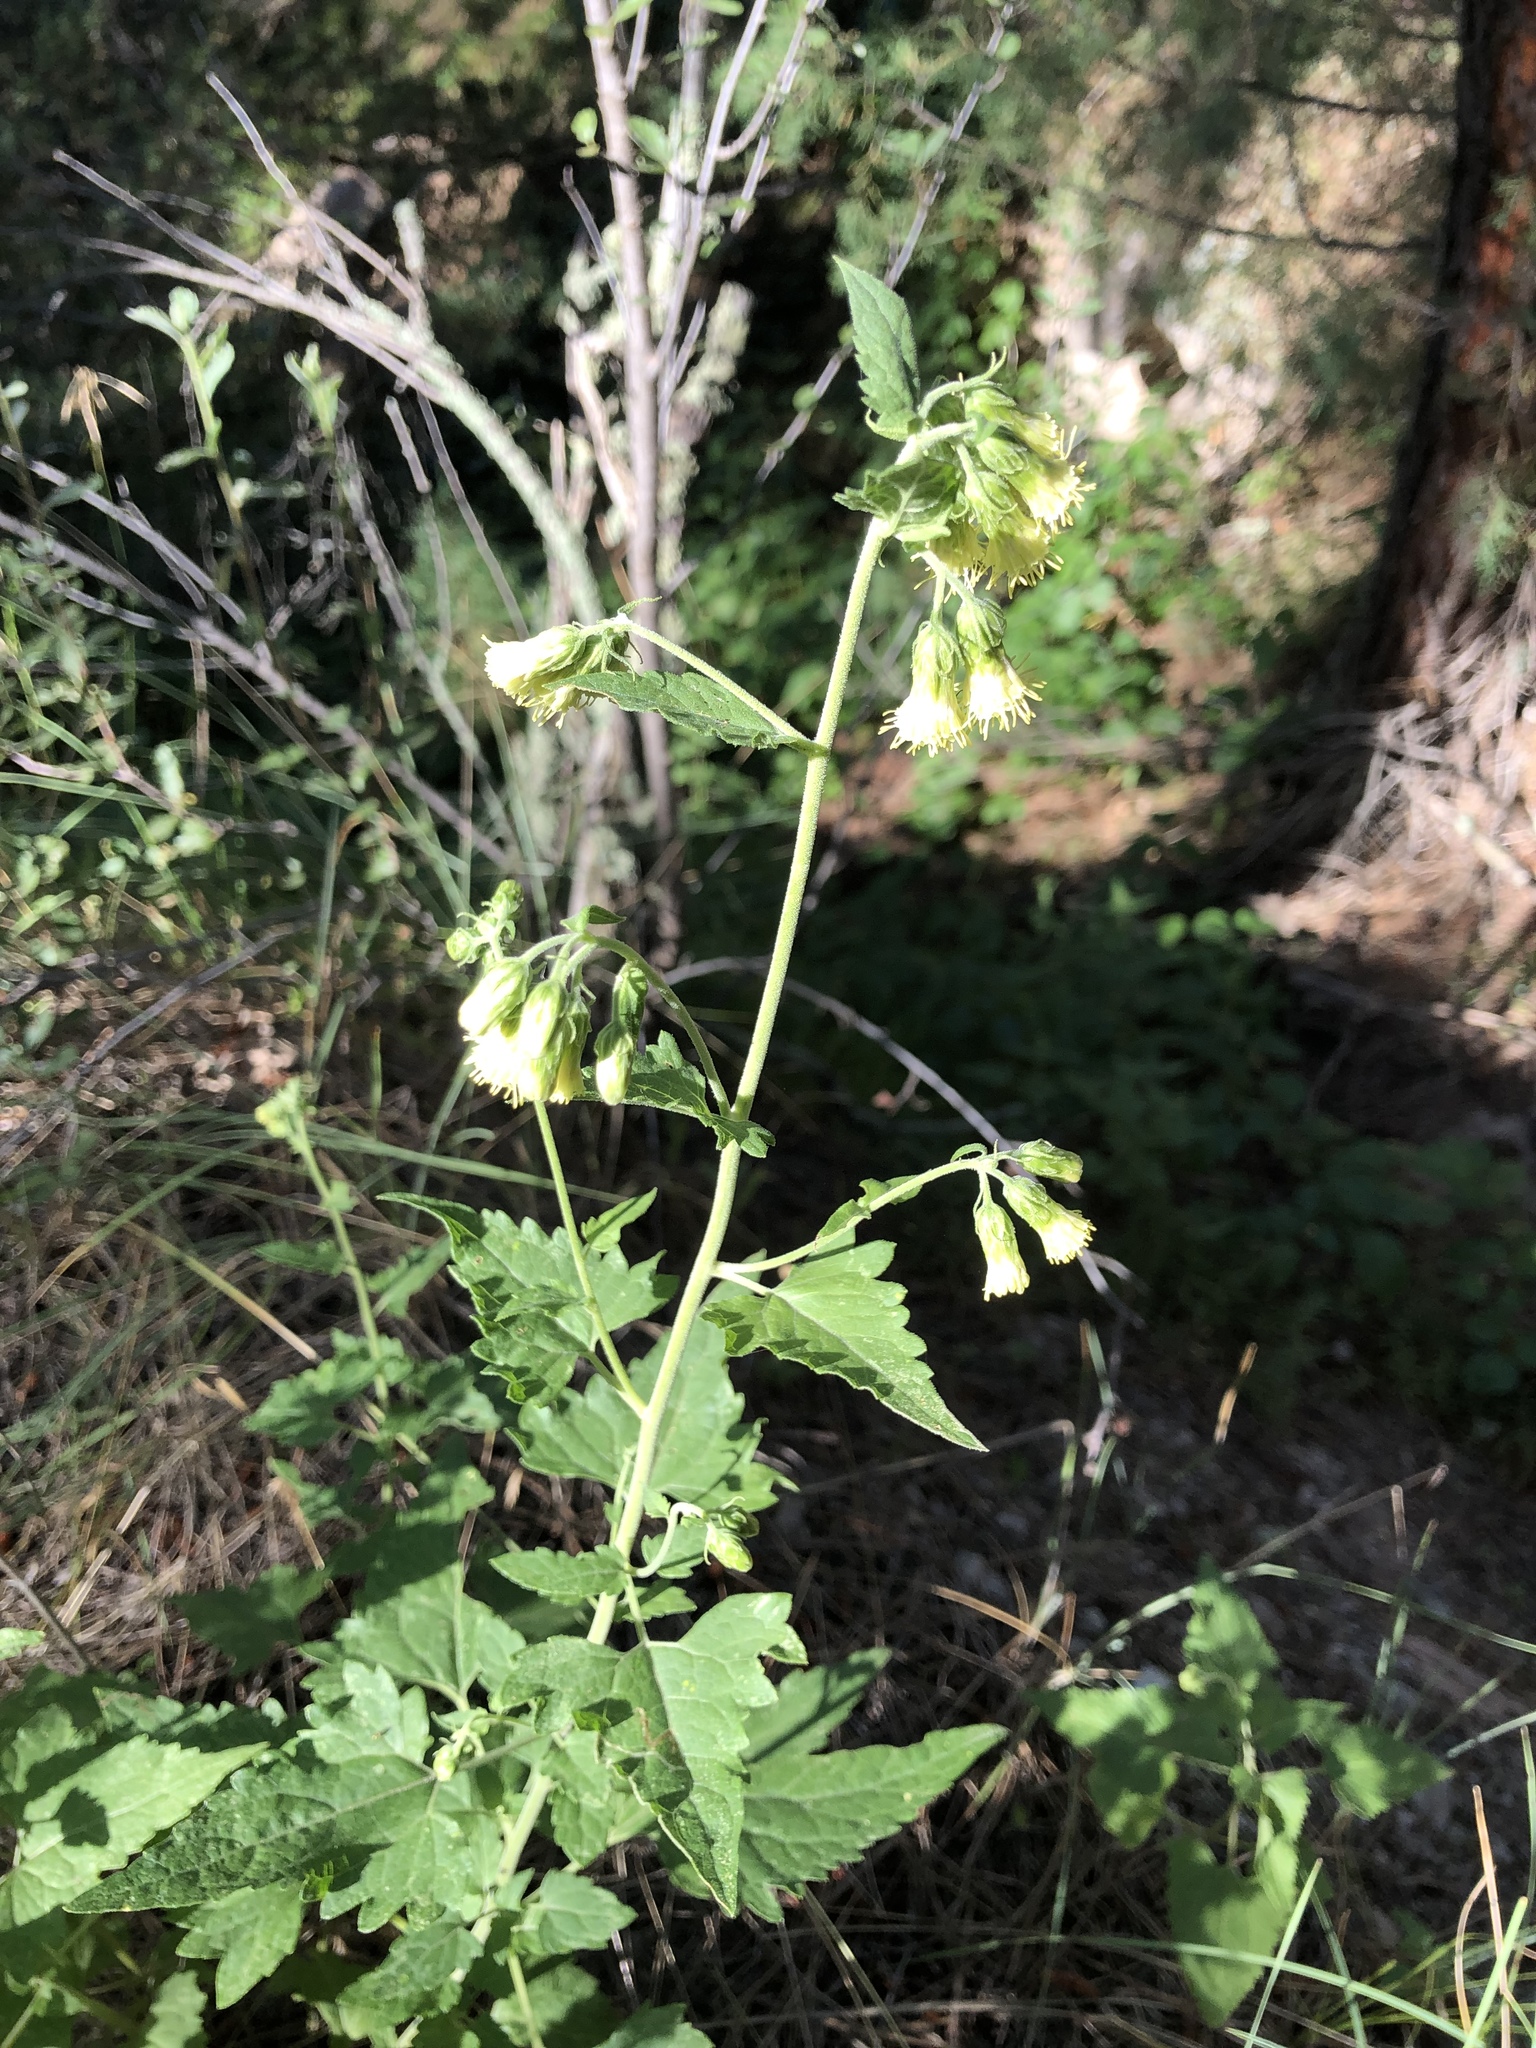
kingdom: Plantae
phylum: Tracheophyta
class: Magnoliopsida
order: Asterales
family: Asteraceae
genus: Brickellia
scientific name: Brickellia grandiflora
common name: Large-flowered brickellia
